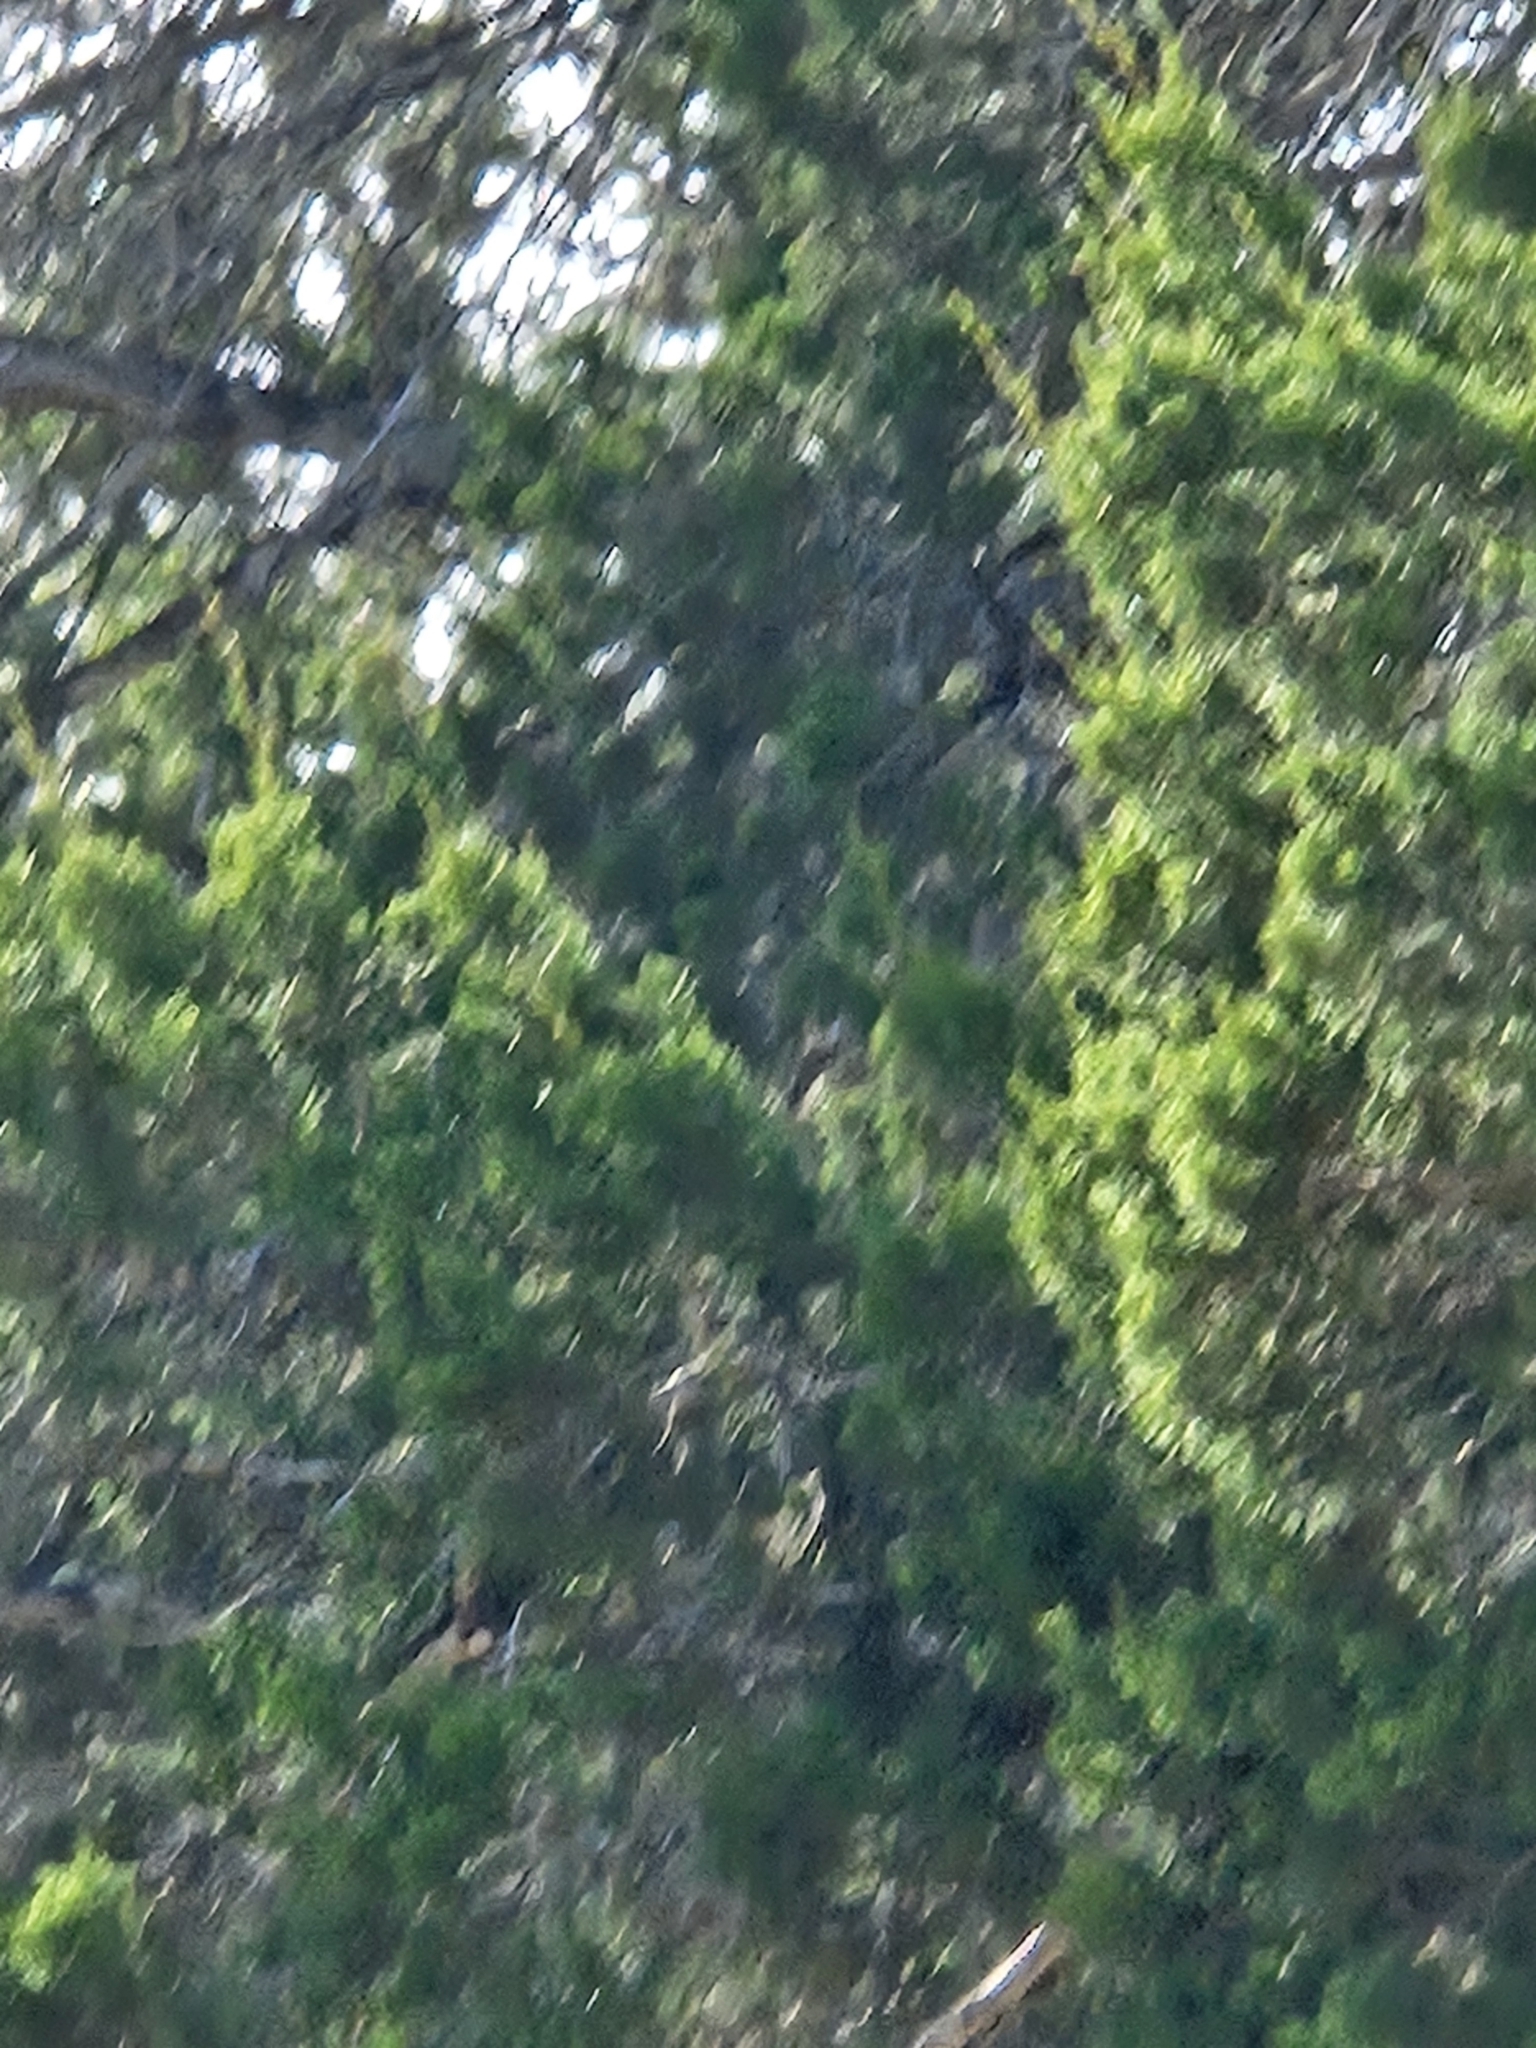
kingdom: Plantae
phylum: Tracheophyta
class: Pinopsida
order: Pinales
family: Cupressaceae
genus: Juniperus
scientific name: Juniperus ashei
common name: Mexican juniper
